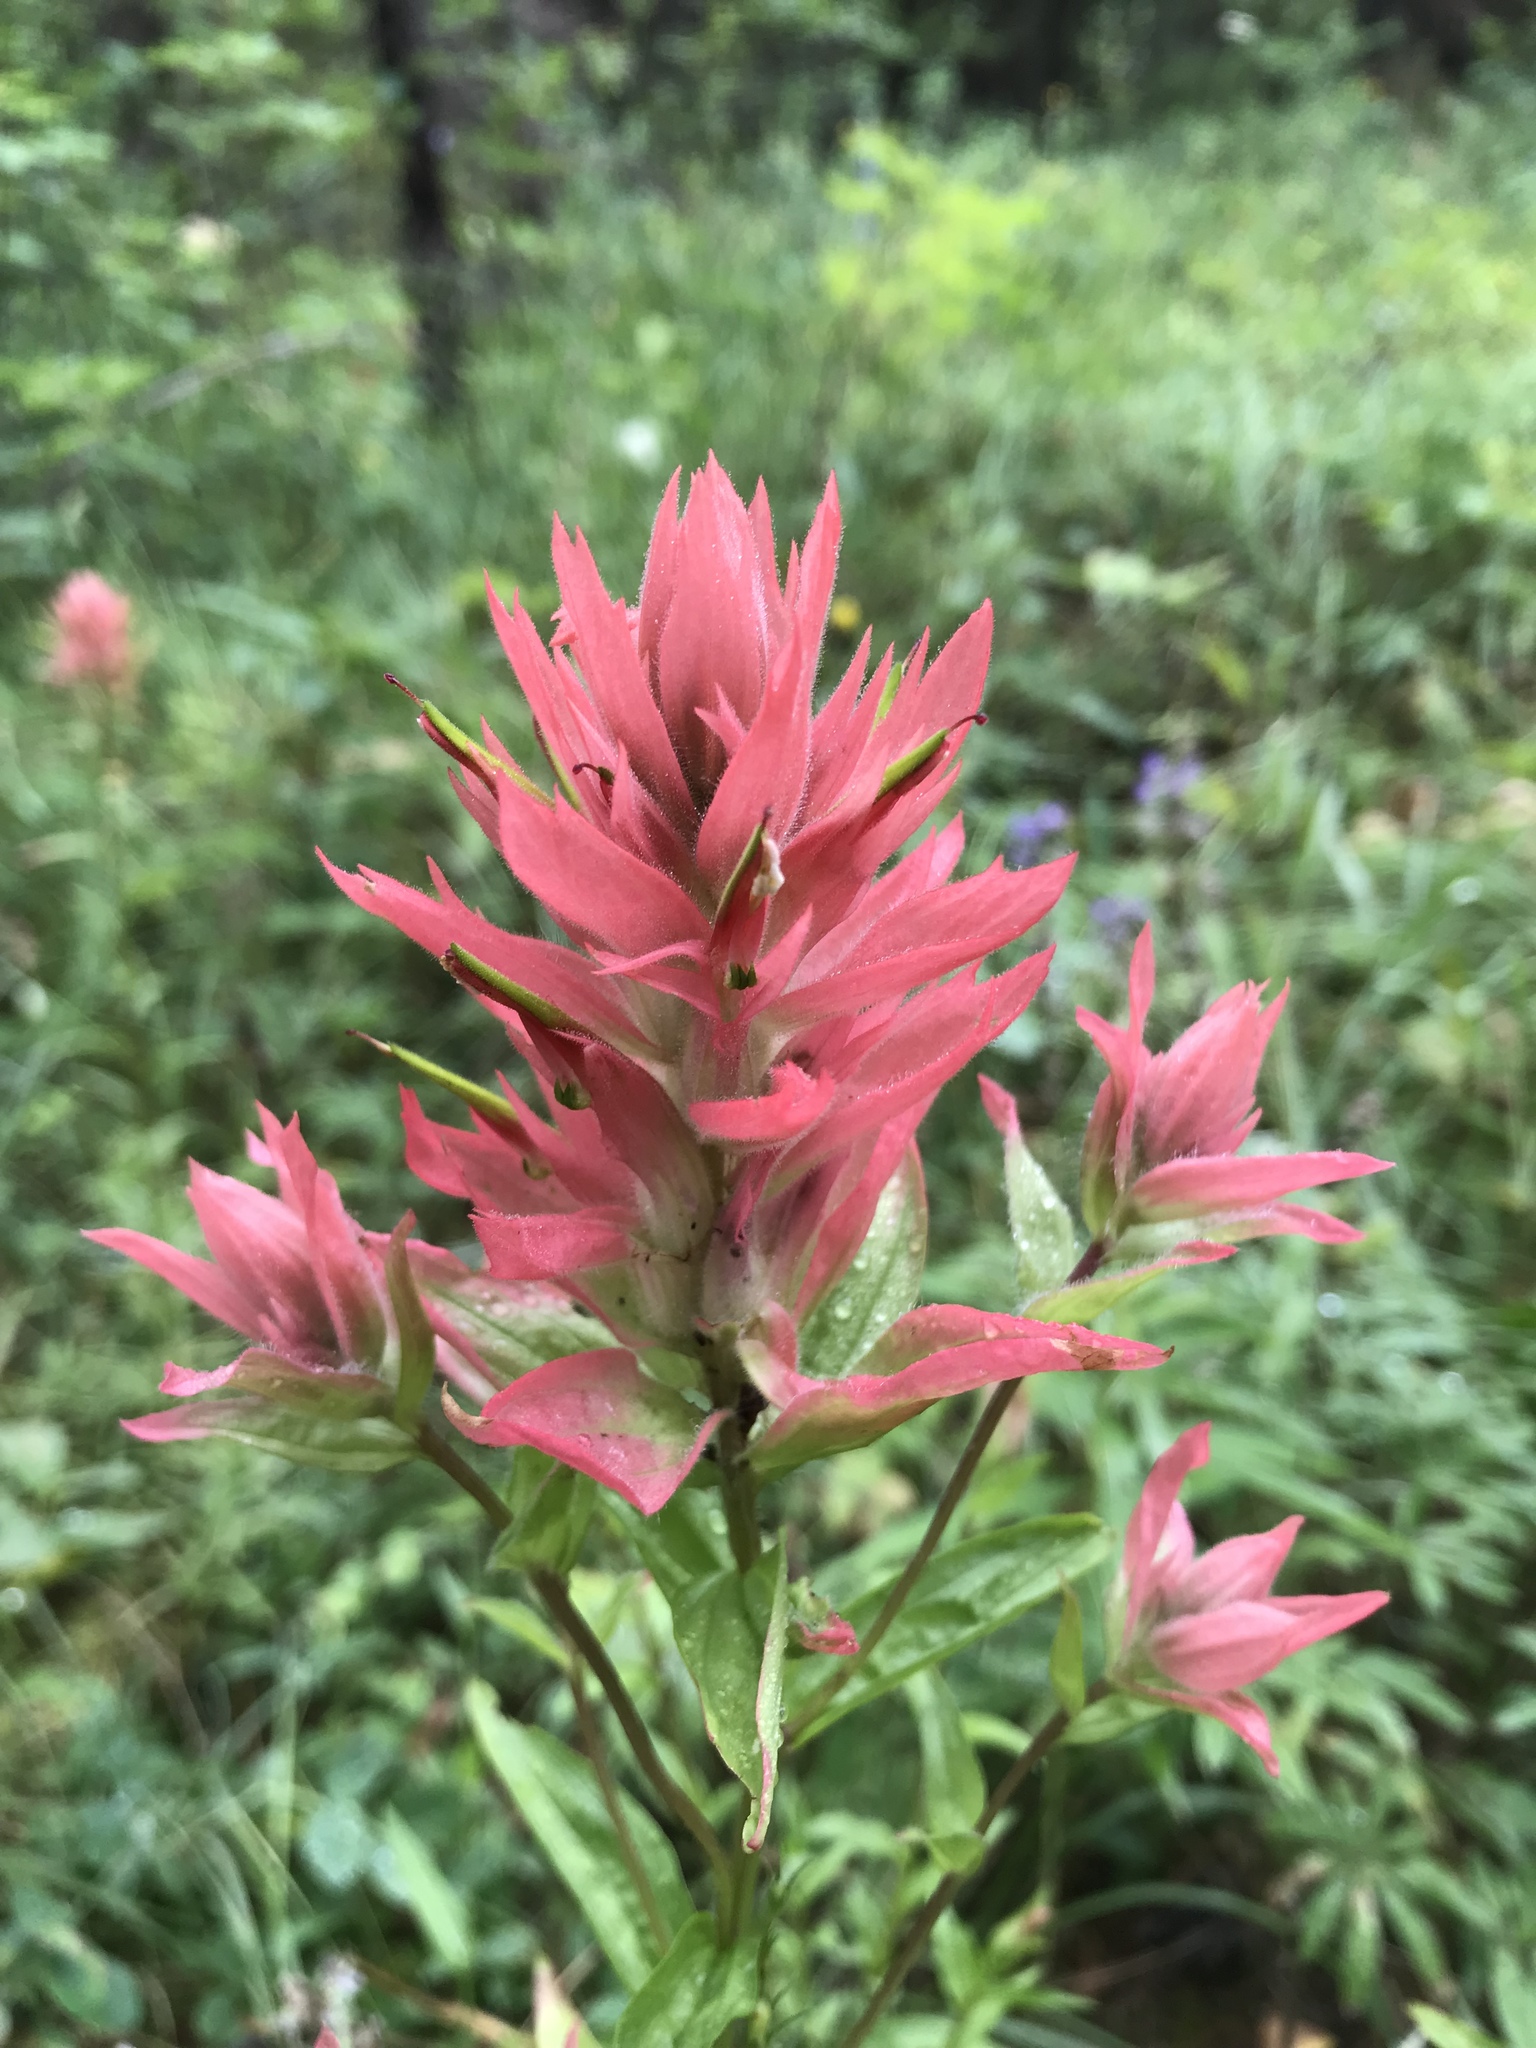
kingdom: Plantae
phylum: Tracheophyta
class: Magnoliopsida
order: Lamiales
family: Orobanchaceae
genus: Castilleja
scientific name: Castilleja miniata
